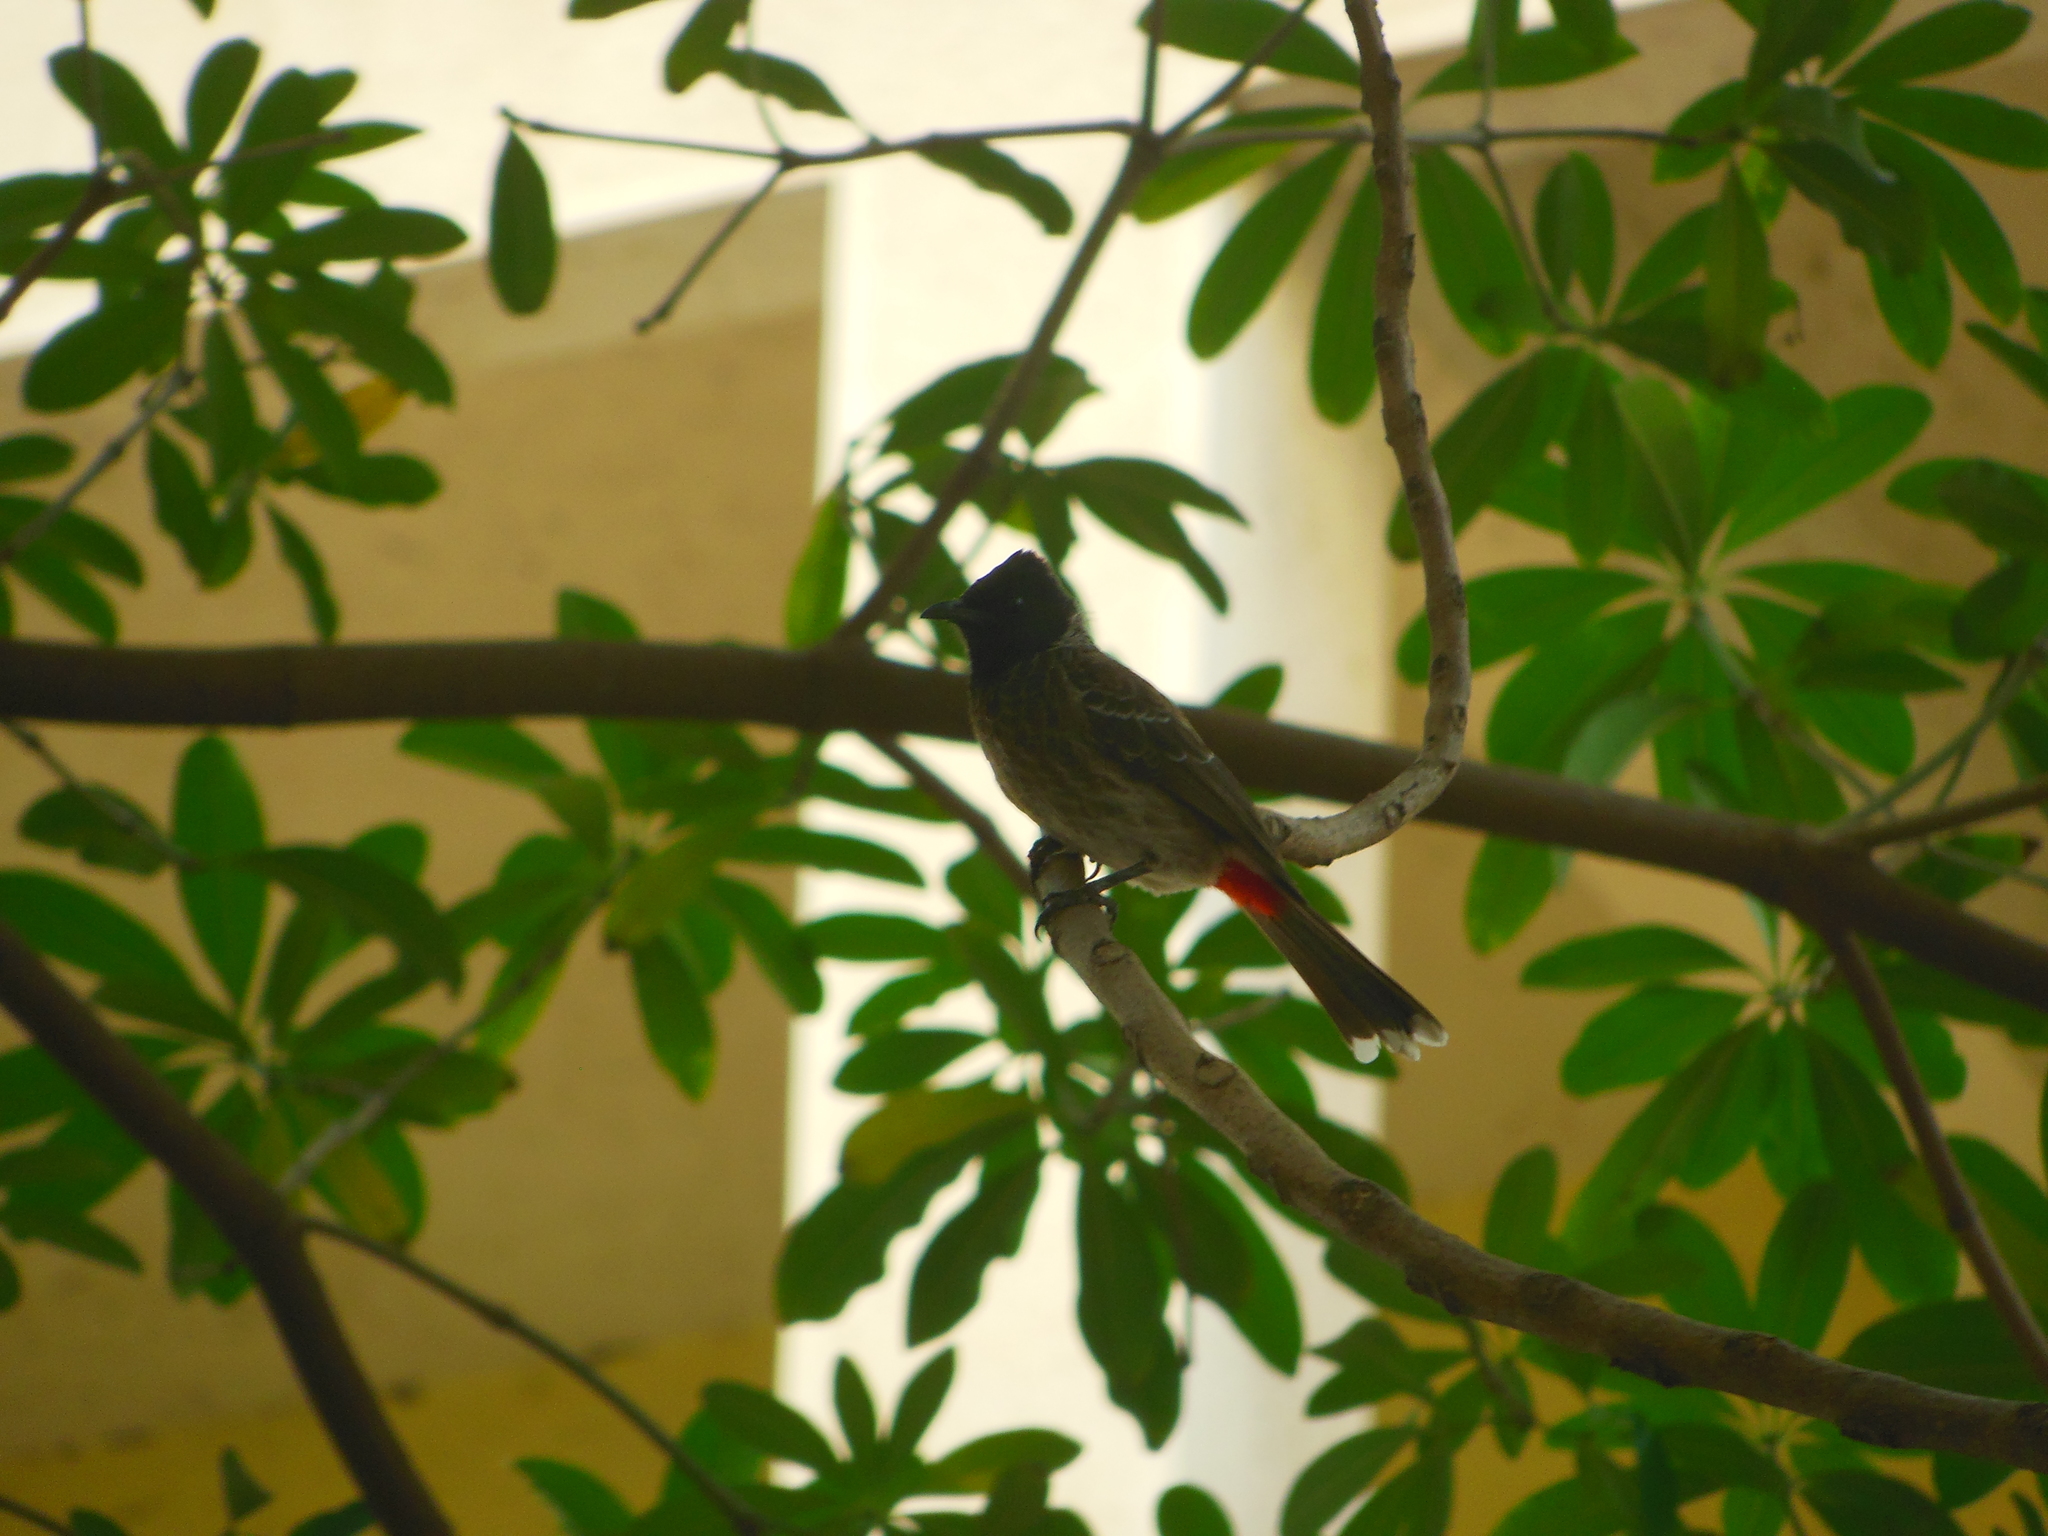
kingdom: Animalia
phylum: Chordata
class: Aves
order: Passeriformes
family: Pycnonotidae
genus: Pycnonotus
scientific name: Pycnonotus cafer
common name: Red-vented bulbul
